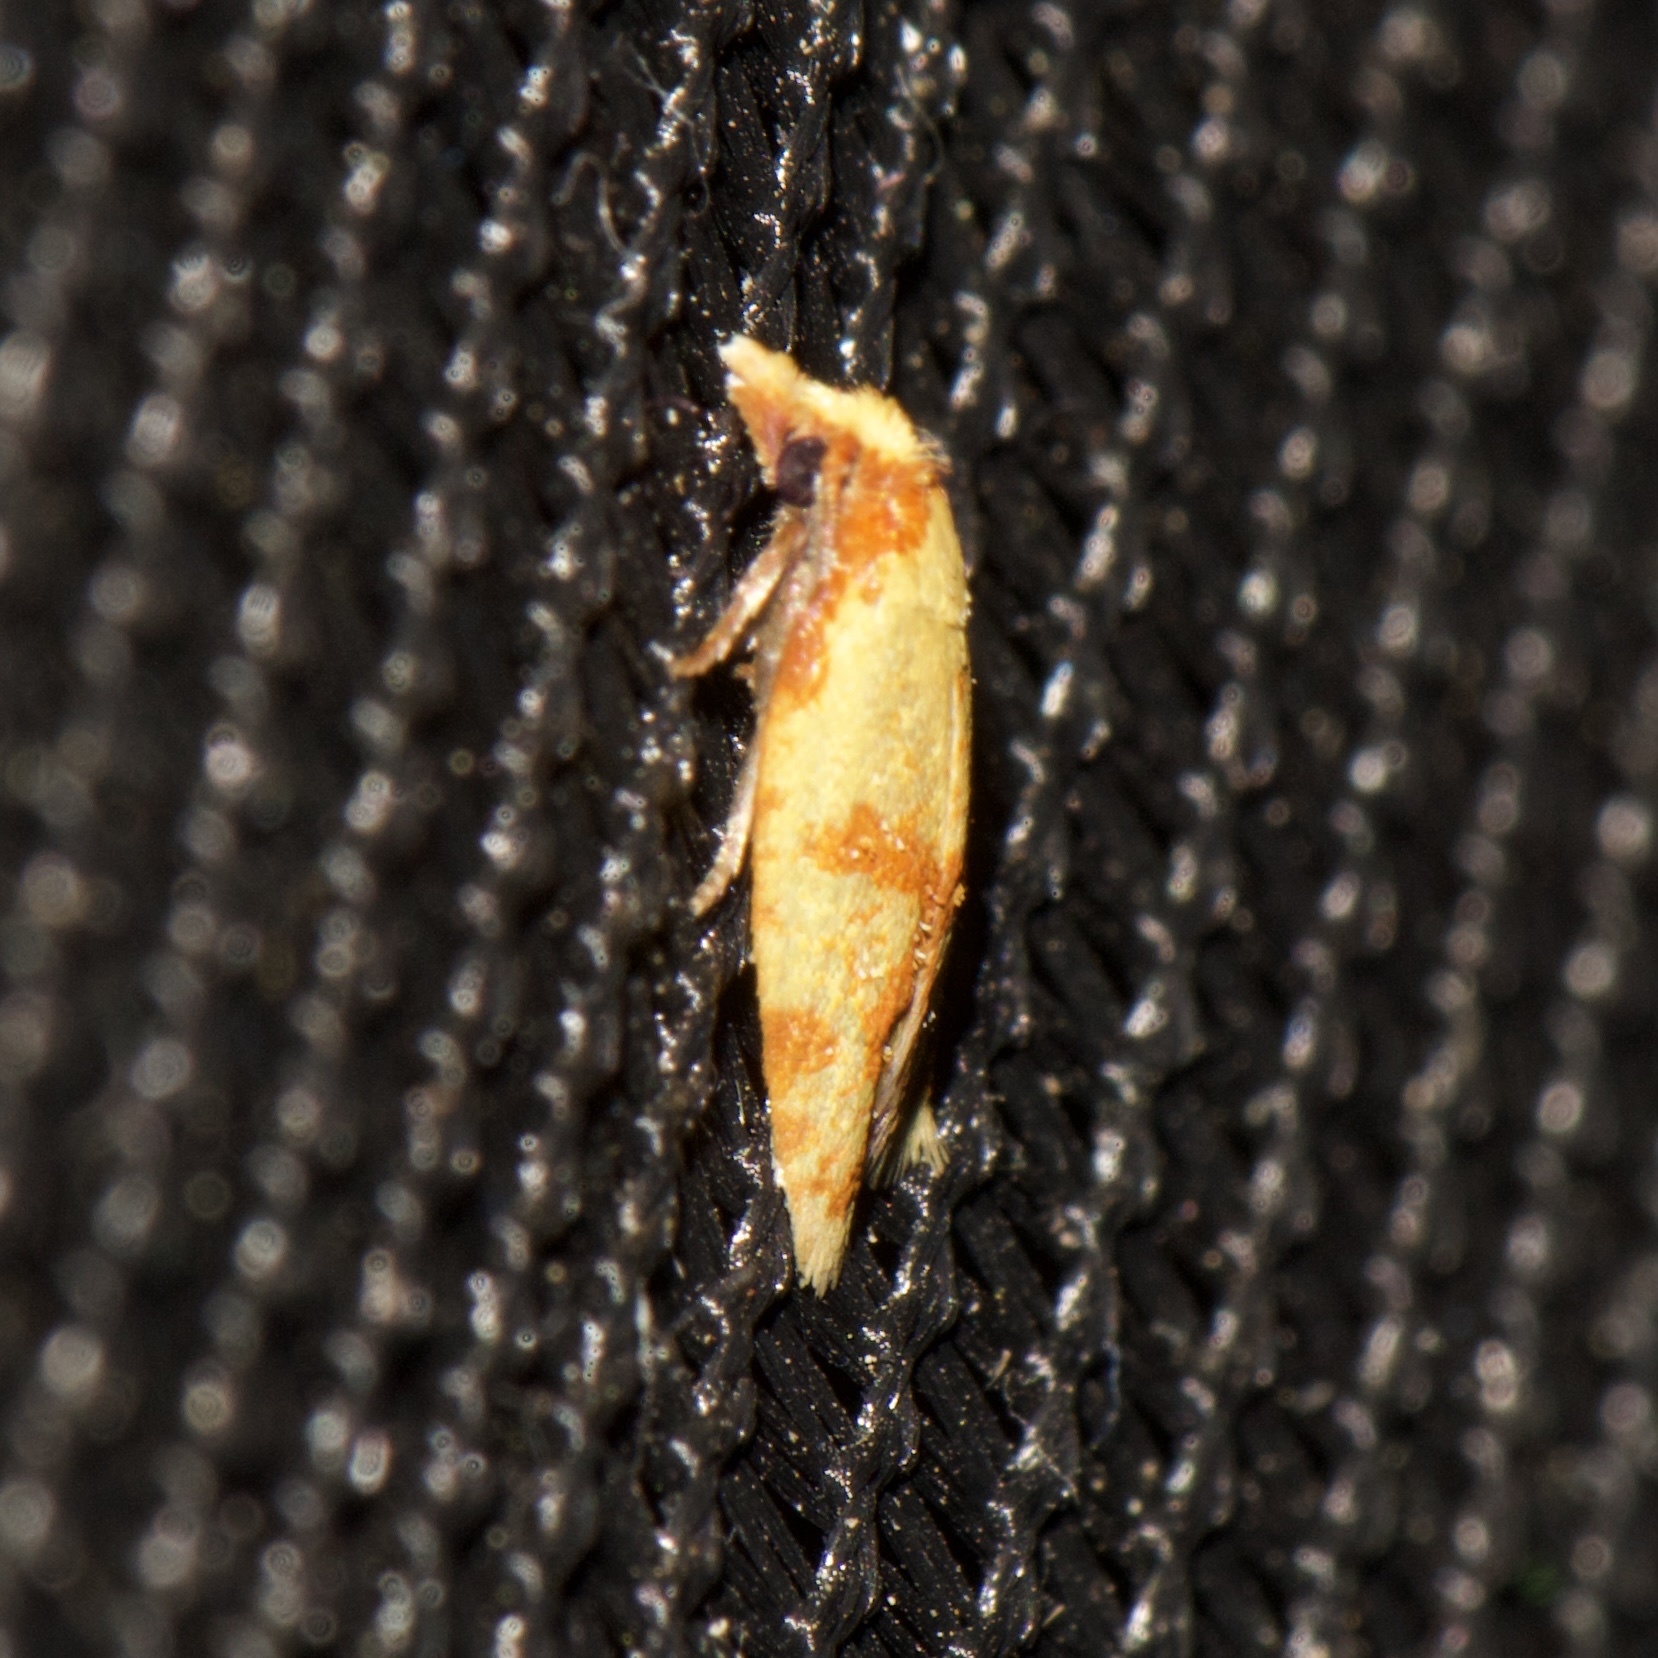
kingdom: Animalia
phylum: Arthropoda
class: Insecta
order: Lepidoptera
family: Tortricidae
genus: Sparganothis
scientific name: Sparganothis sulfureana
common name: Sparganothis fruitworm moth
